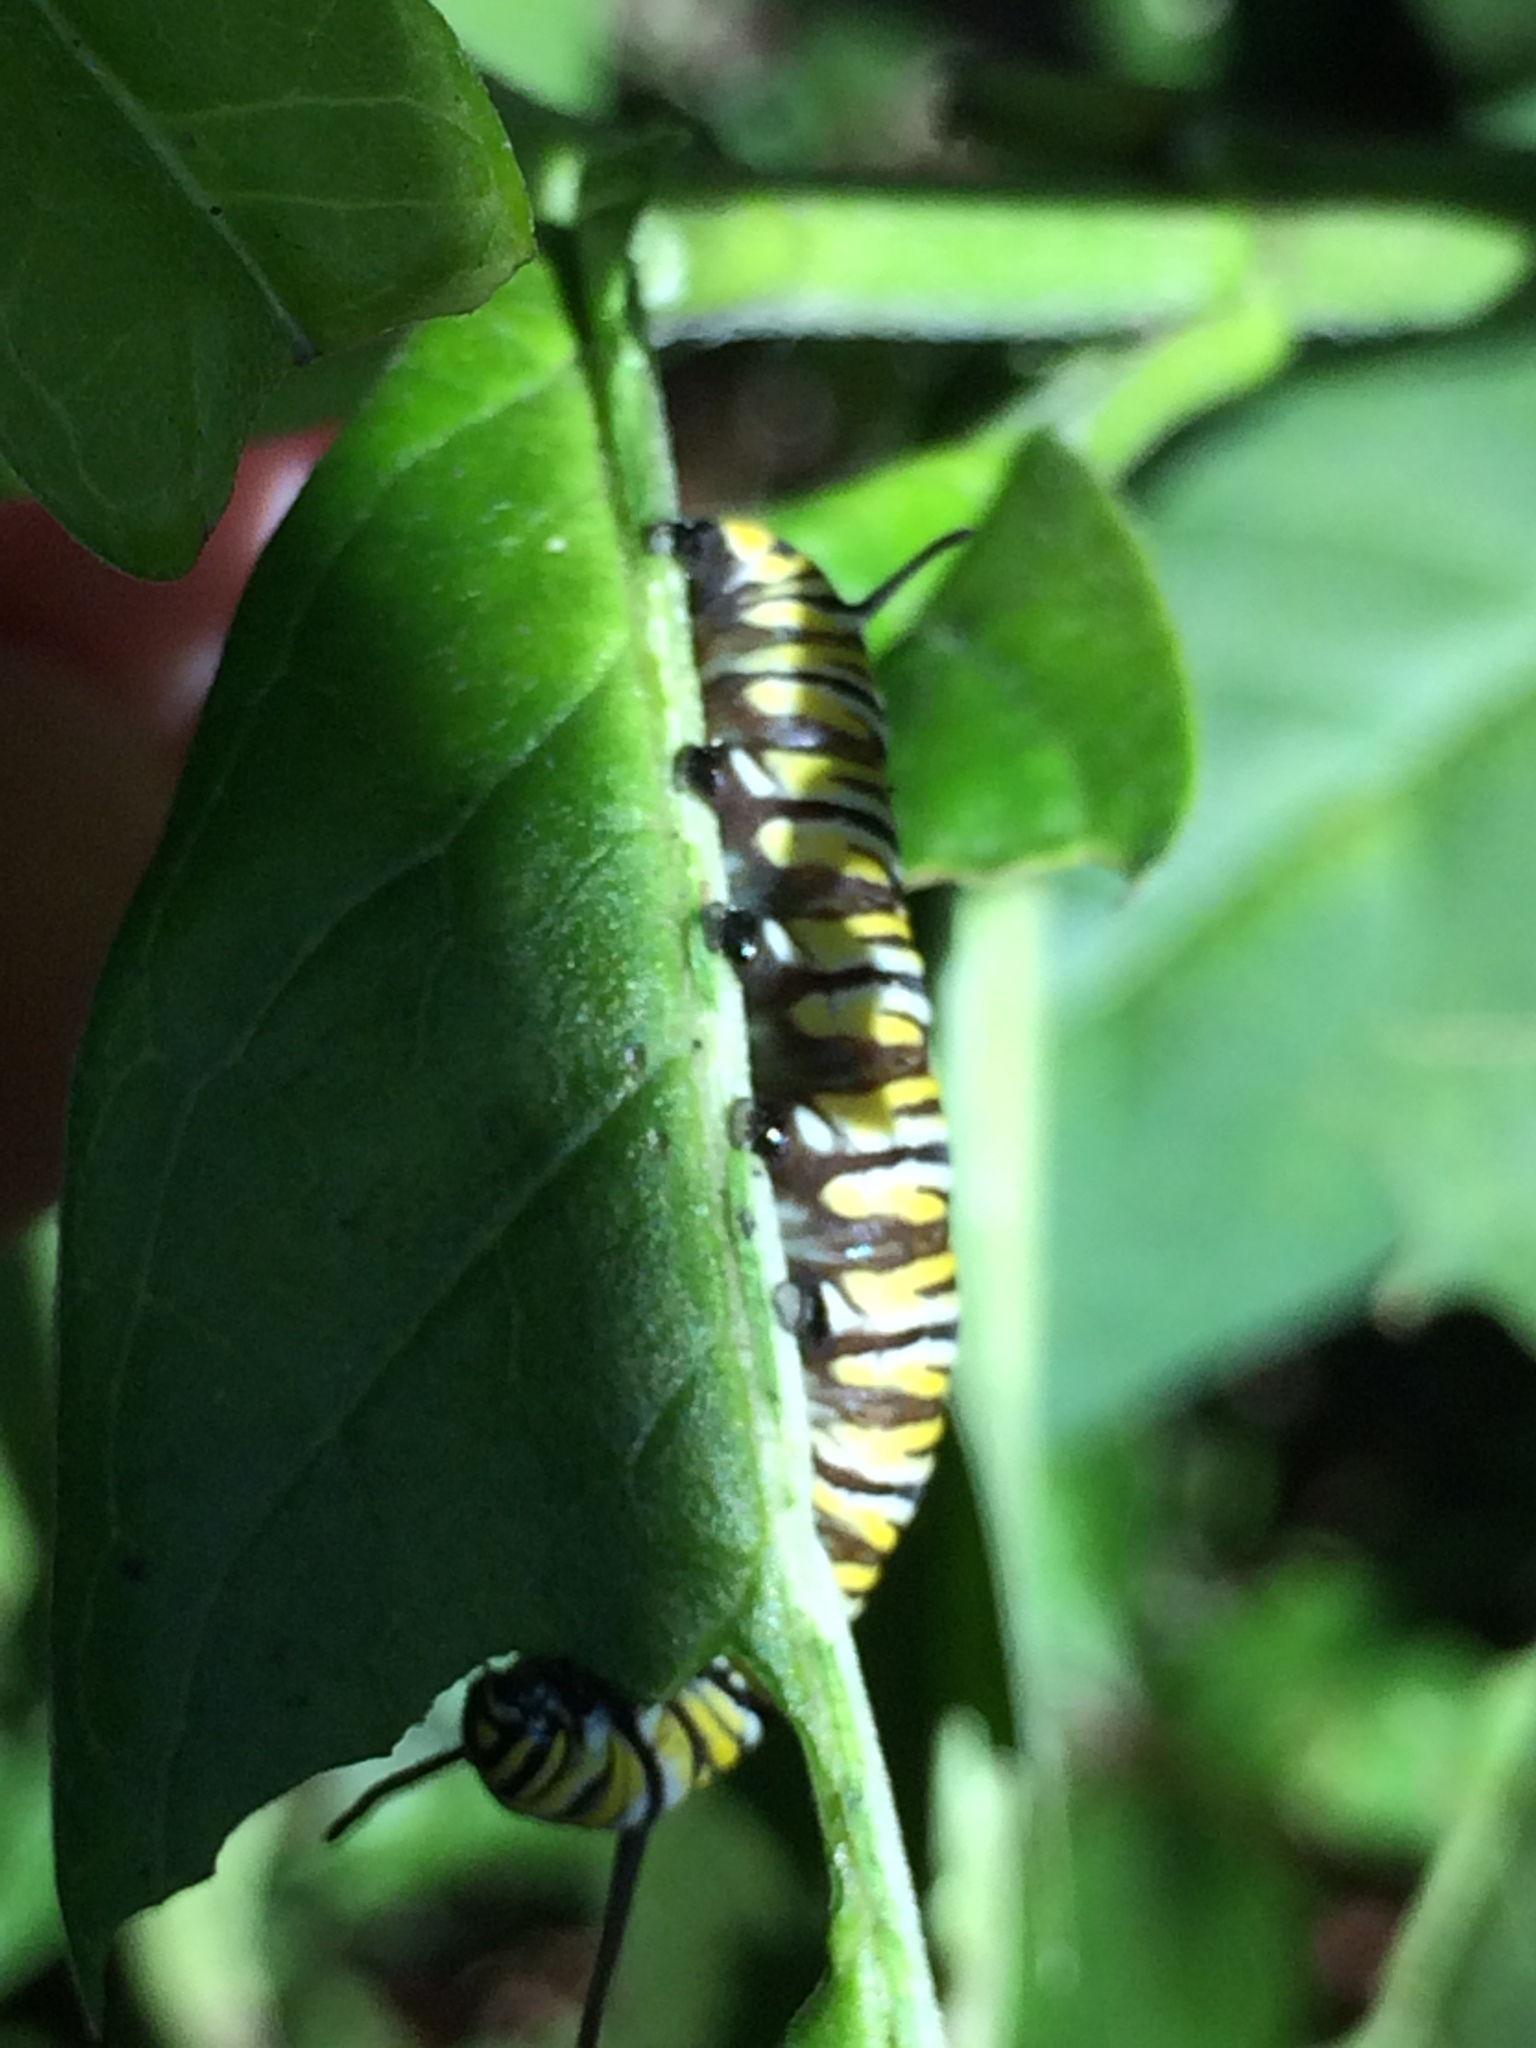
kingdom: Animalia
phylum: Arthropoda
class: Insecta
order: Lepidoptera
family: Nymphalidae
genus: Danaus
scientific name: Danaus plexippus
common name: Monarch
